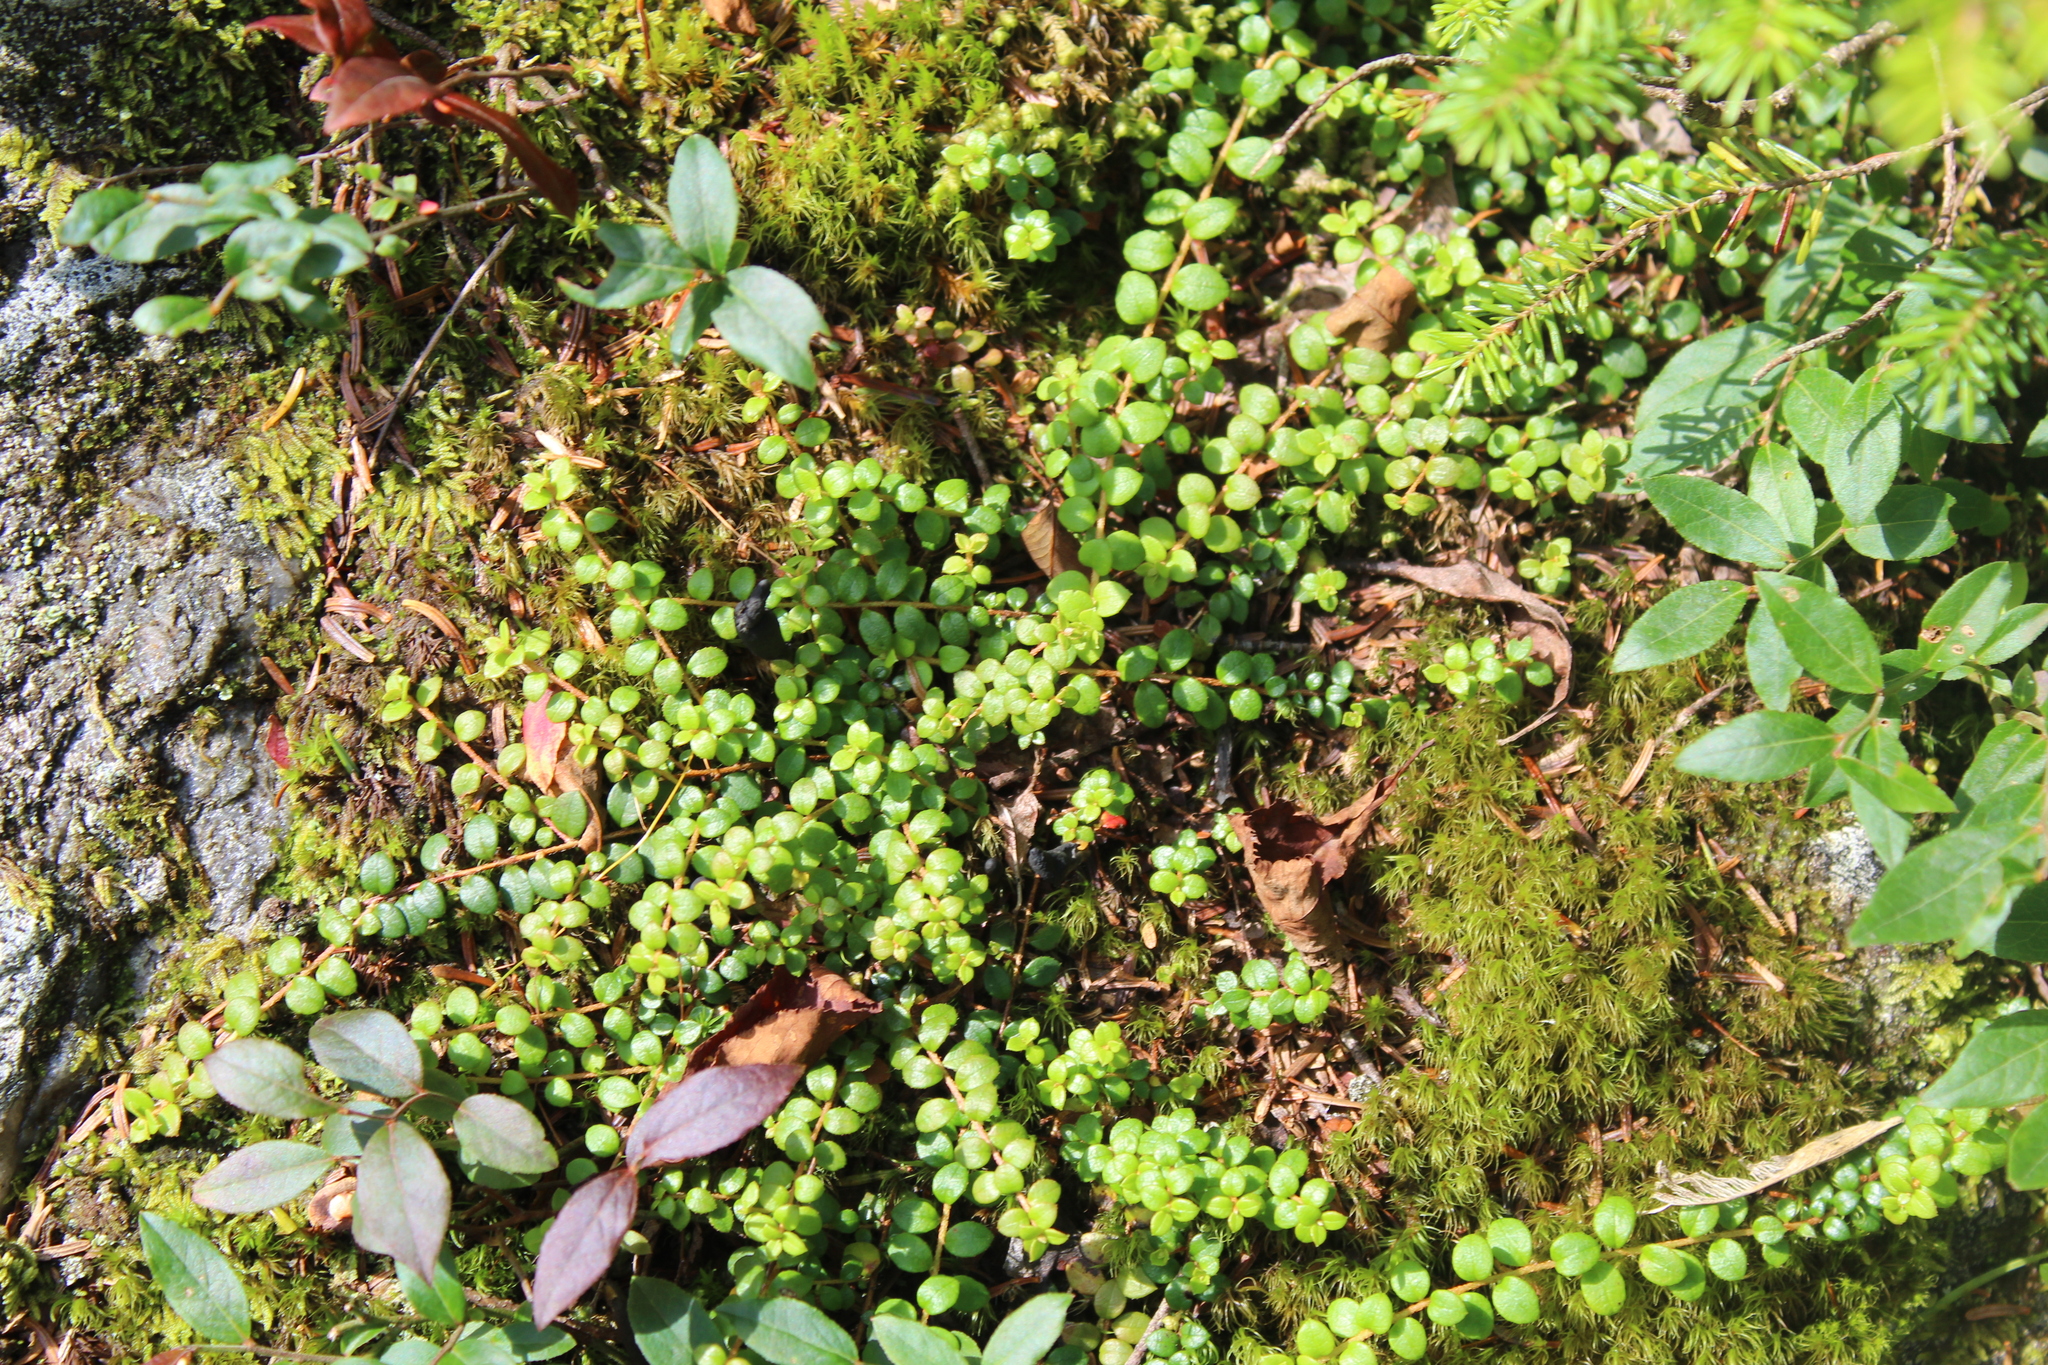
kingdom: Plantae
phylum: Tracheophyta
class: Magnoliopsida
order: Ericales
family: Ericaceae
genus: Gaultheria
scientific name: Gaultheria hispidula
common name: Cancer wintergreen
